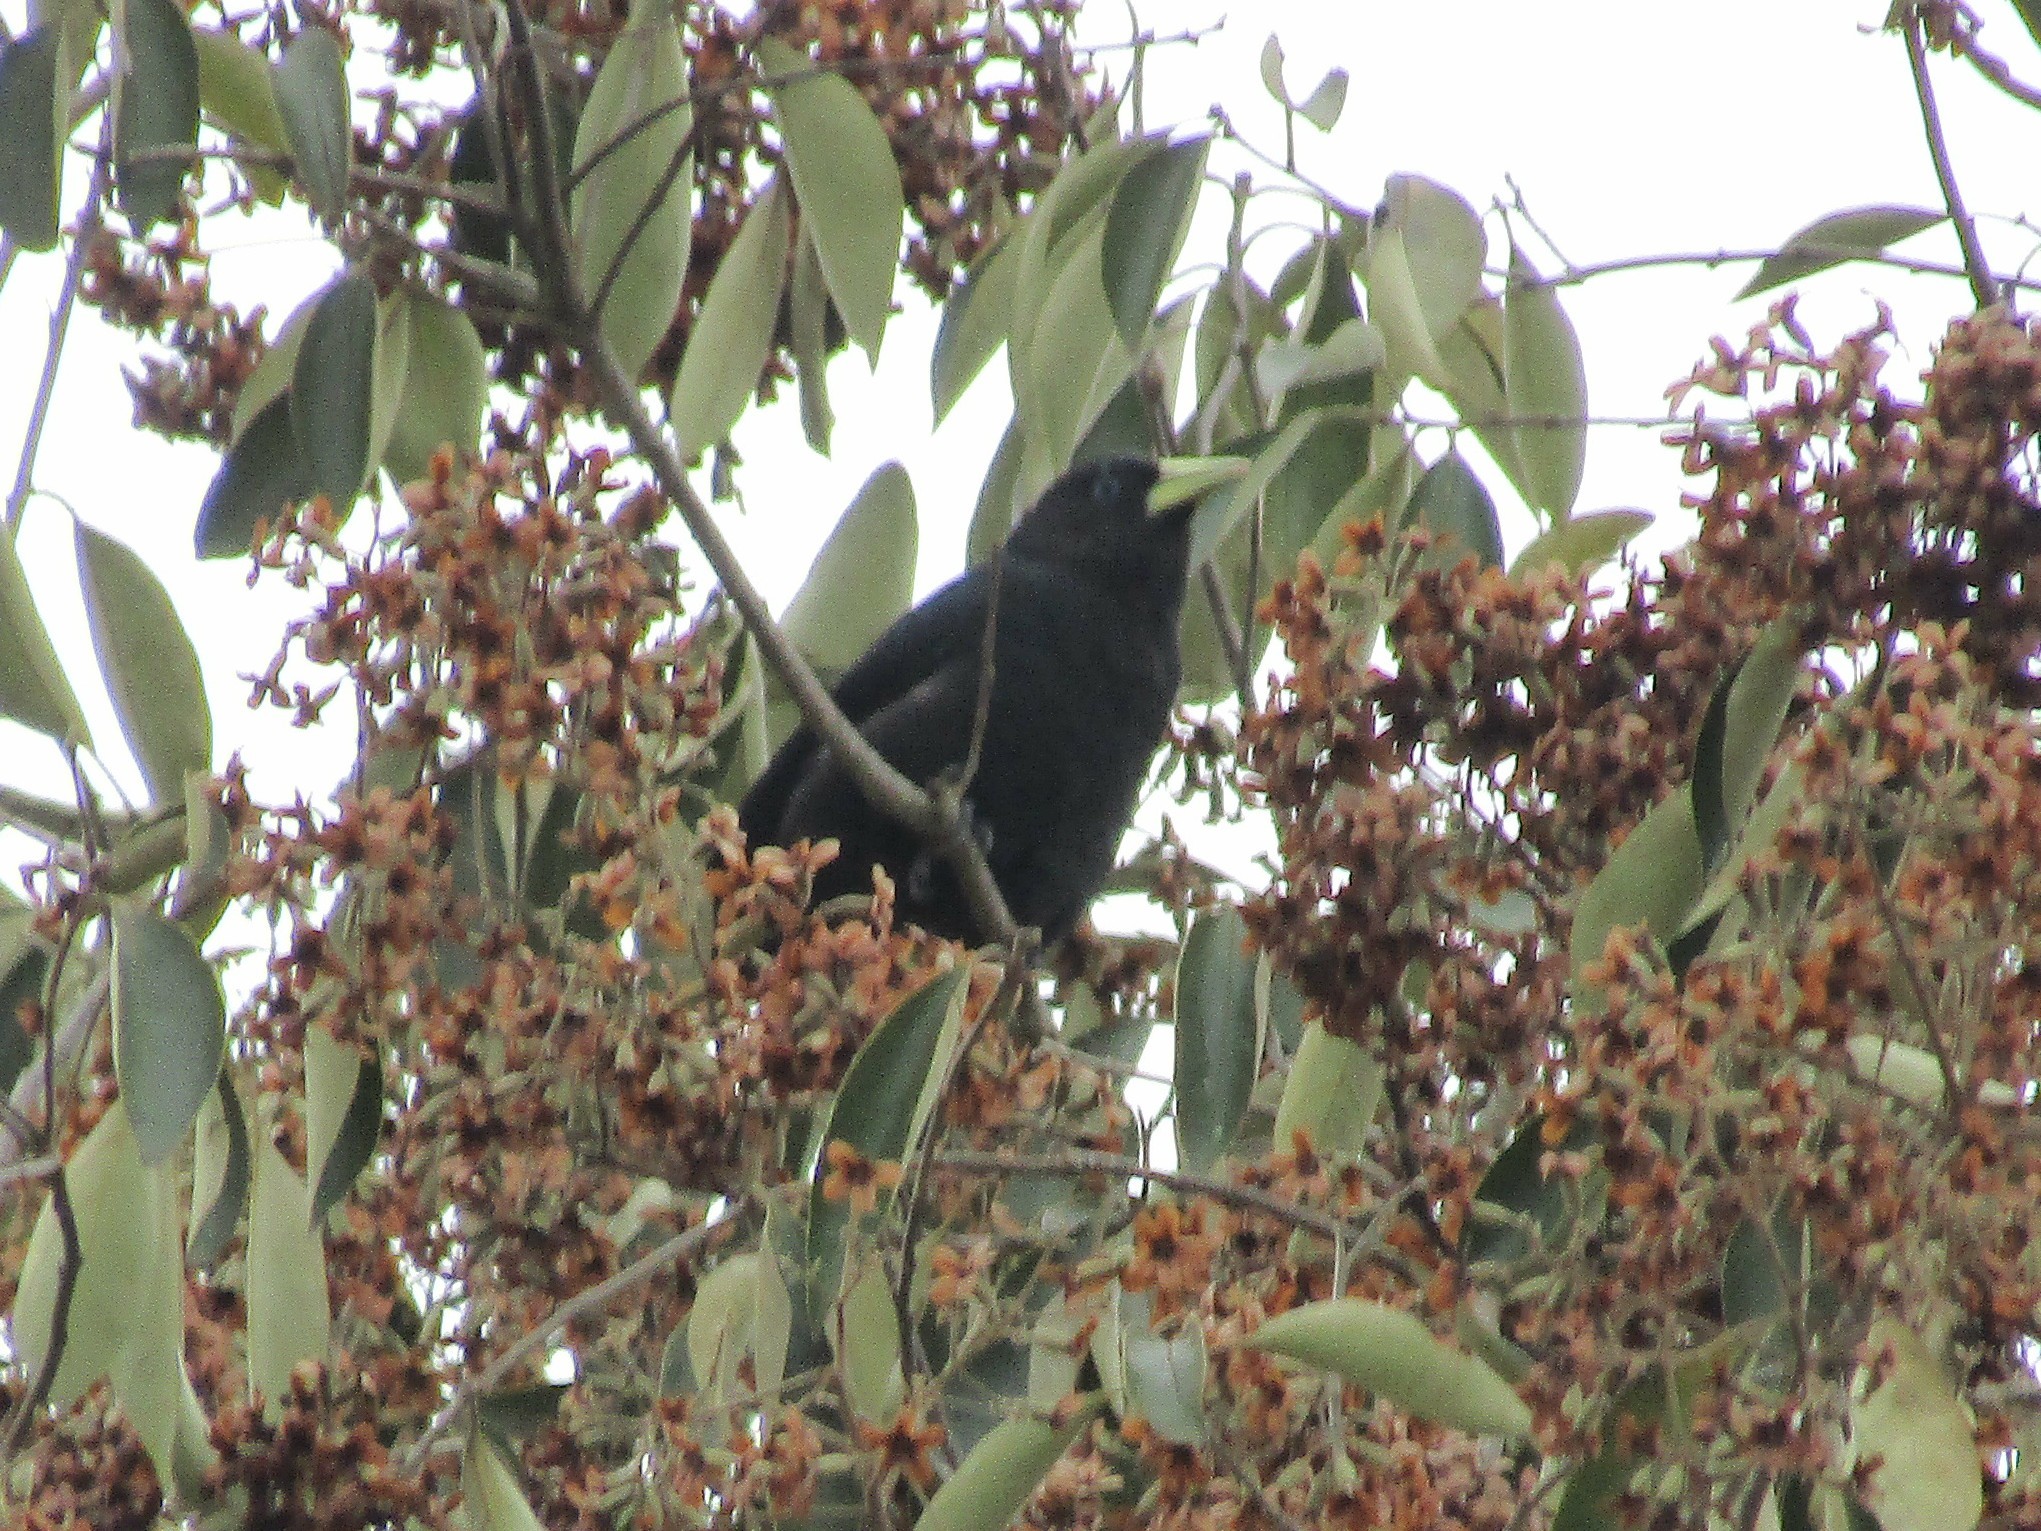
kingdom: Animalia
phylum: Chordata
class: Aves
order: Passeriformes
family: Icteridae
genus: Cacicus
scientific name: Cacicus haemorrhous
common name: Red-rumped cacique
